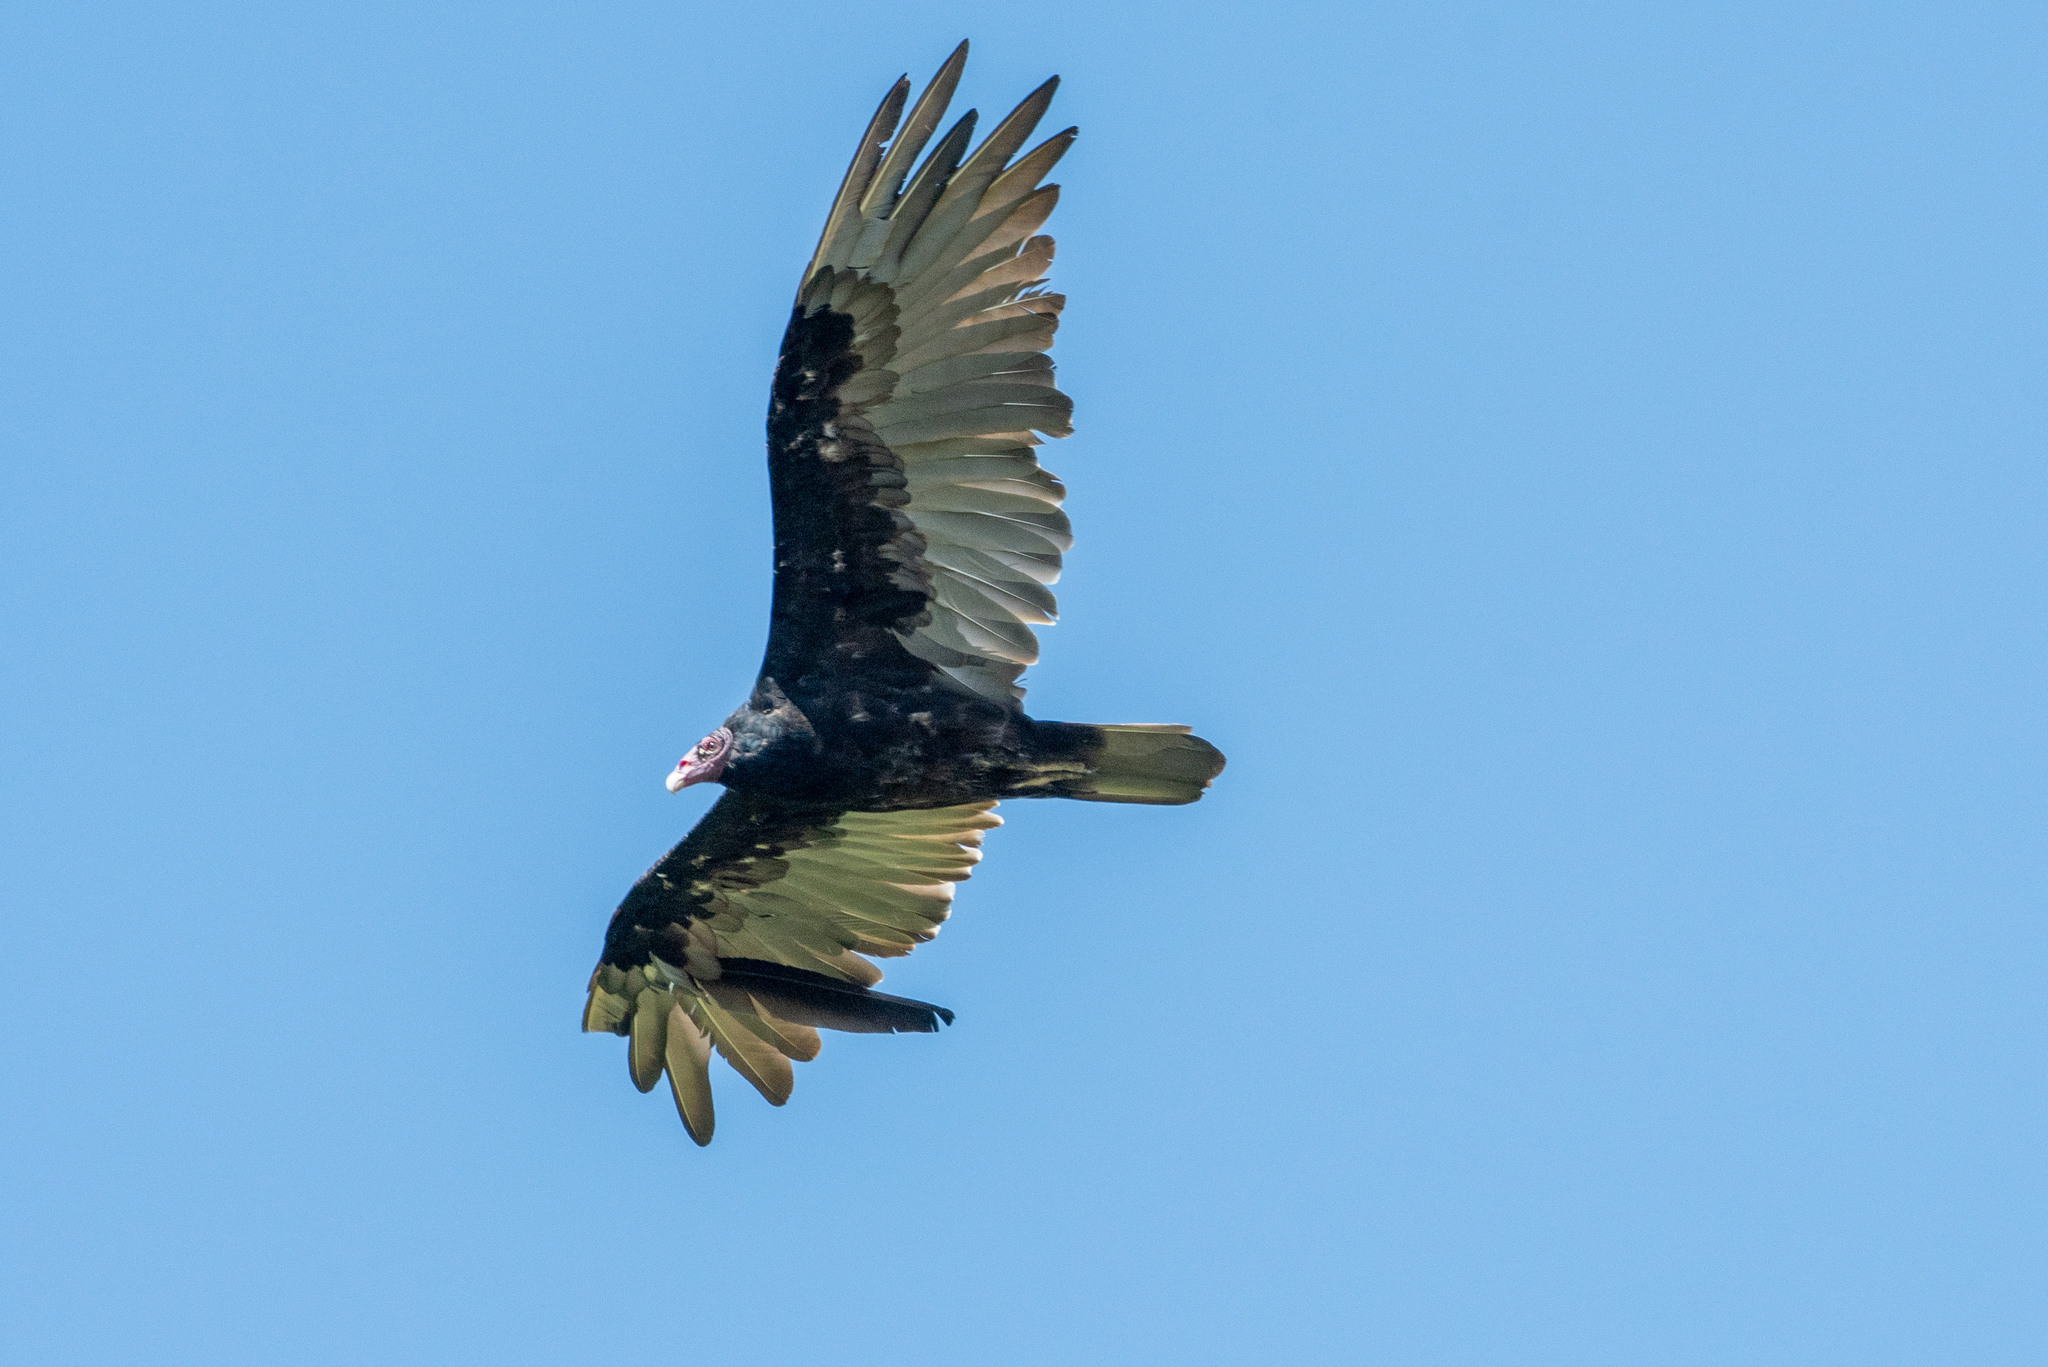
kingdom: Animalia
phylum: Chordata
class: Aves
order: Accipitriformes
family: Cathartidae
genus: Cathartes
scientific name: Cathartes aura
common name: Turkey vulture
